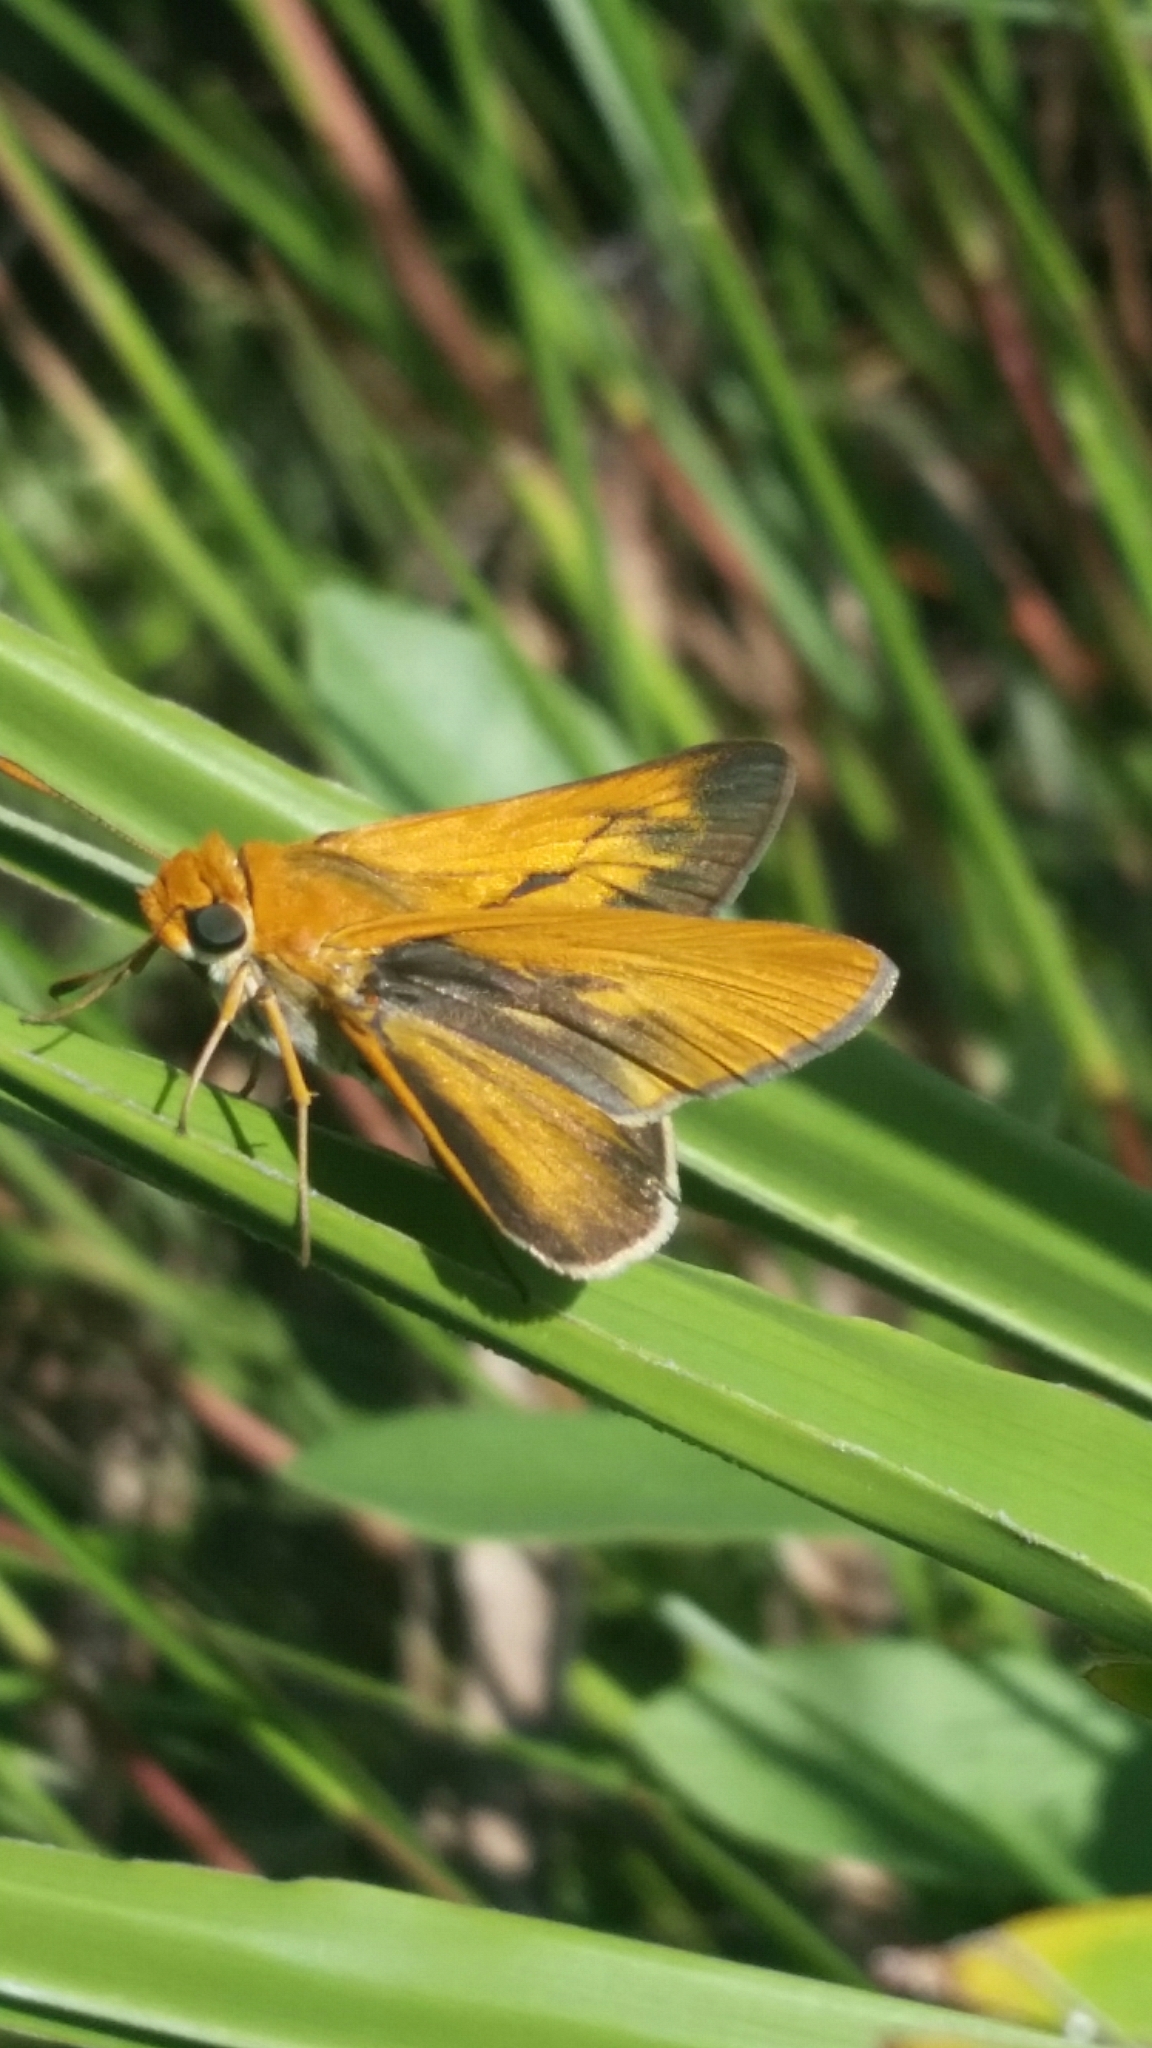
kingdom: Animalia
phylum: Arthropoda
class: Insecta
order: Lepidoptera
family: Hesperiidae
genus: Euphyes
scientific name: Euphyes arpa
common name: Palmetto skipper
